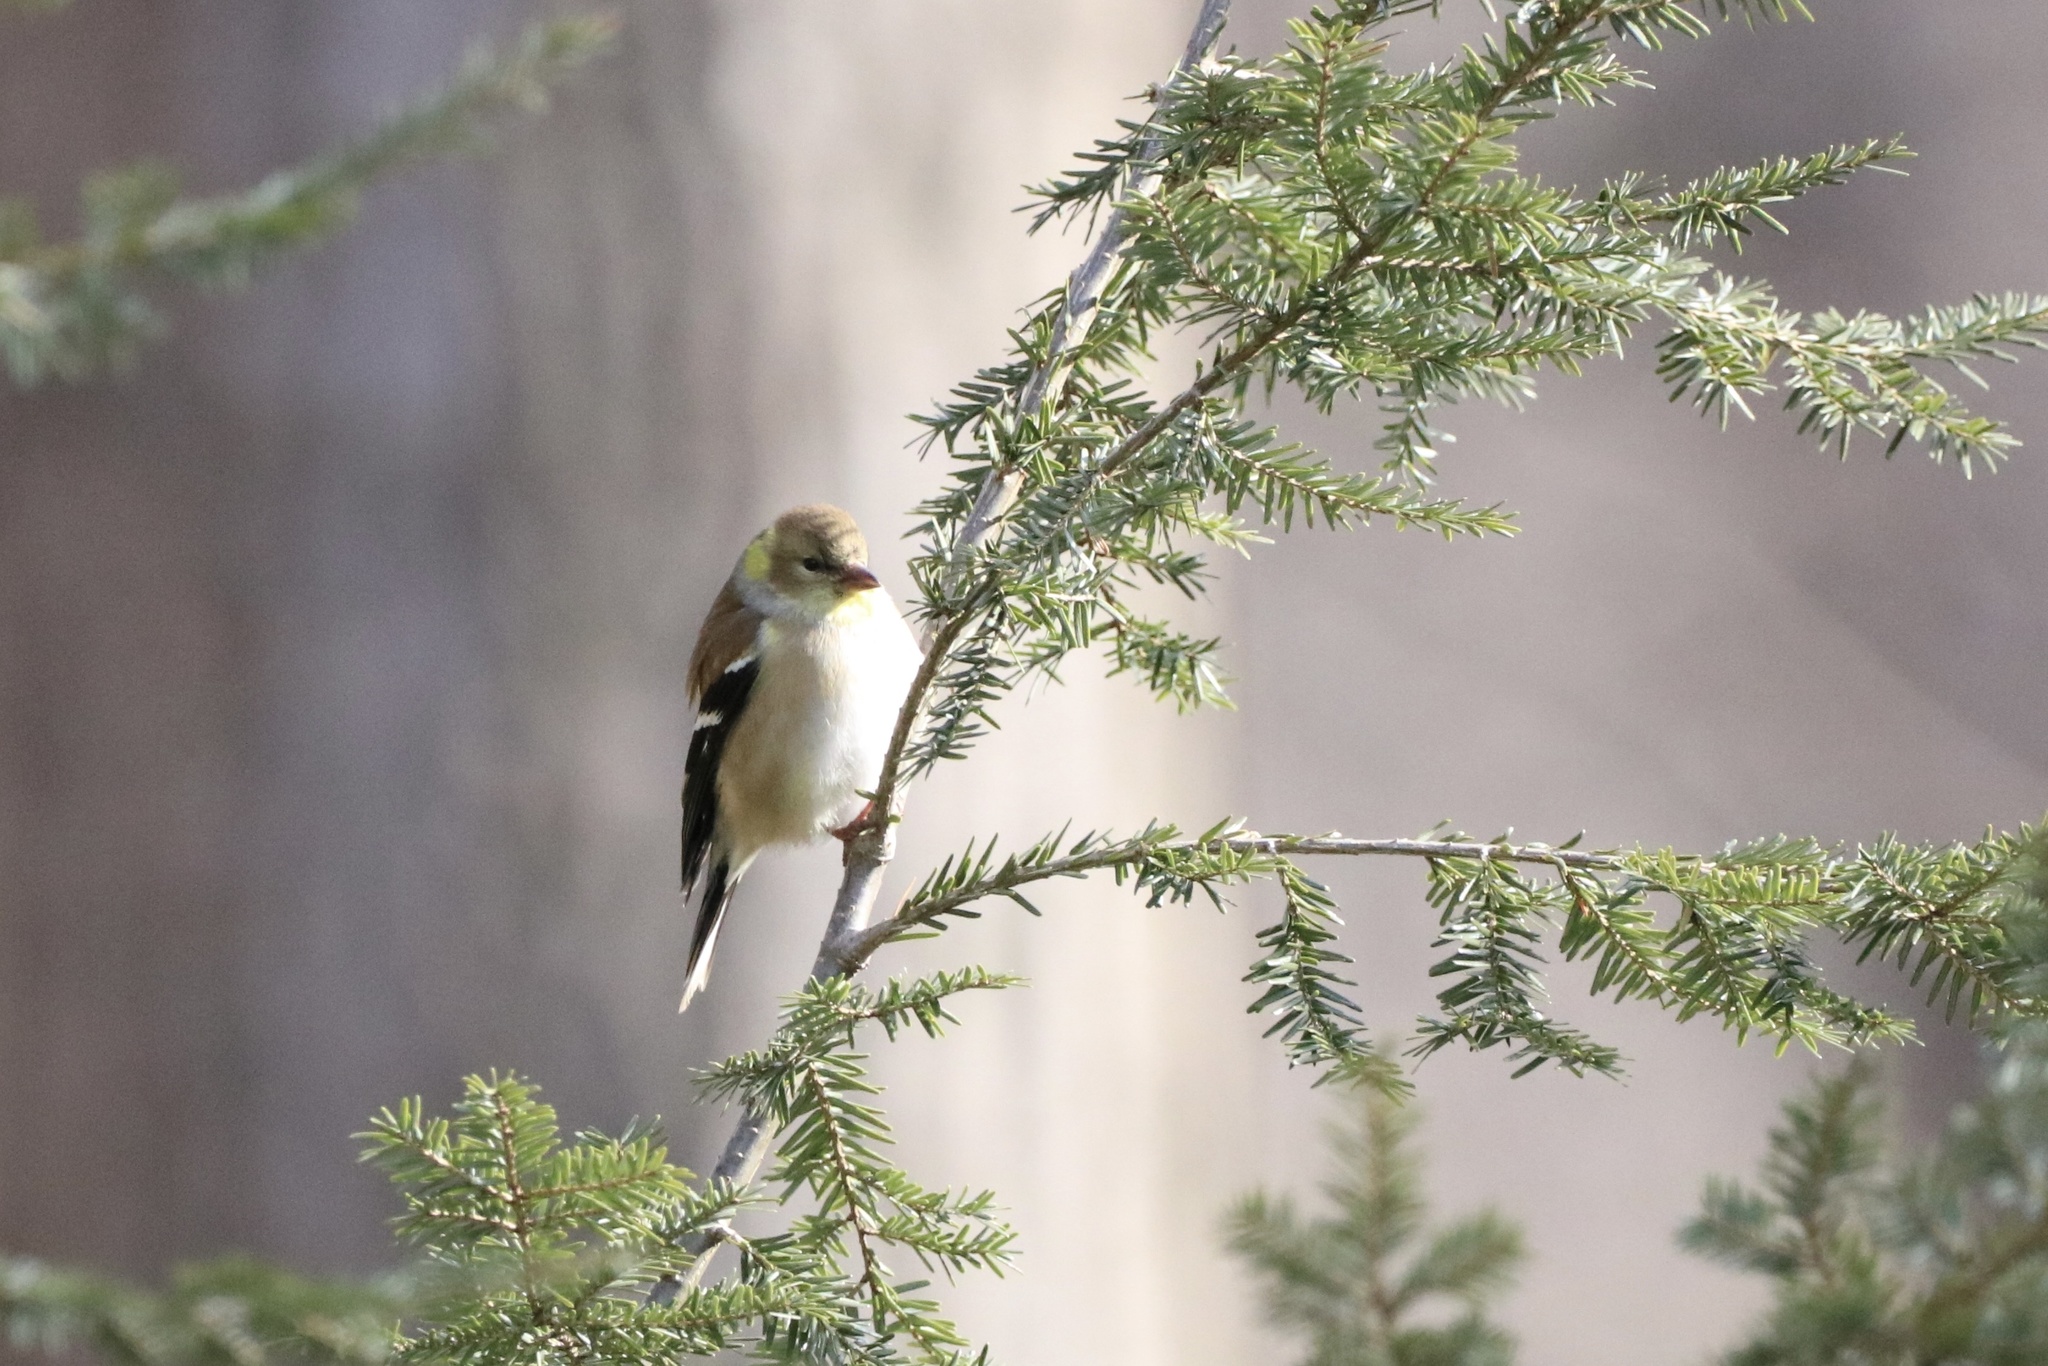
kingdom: Animalia
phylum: Chordata
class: Aves
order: Passeriformes
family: Fringillidae
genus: Spinus
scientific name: Spinus tristis
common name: American goldfinch
